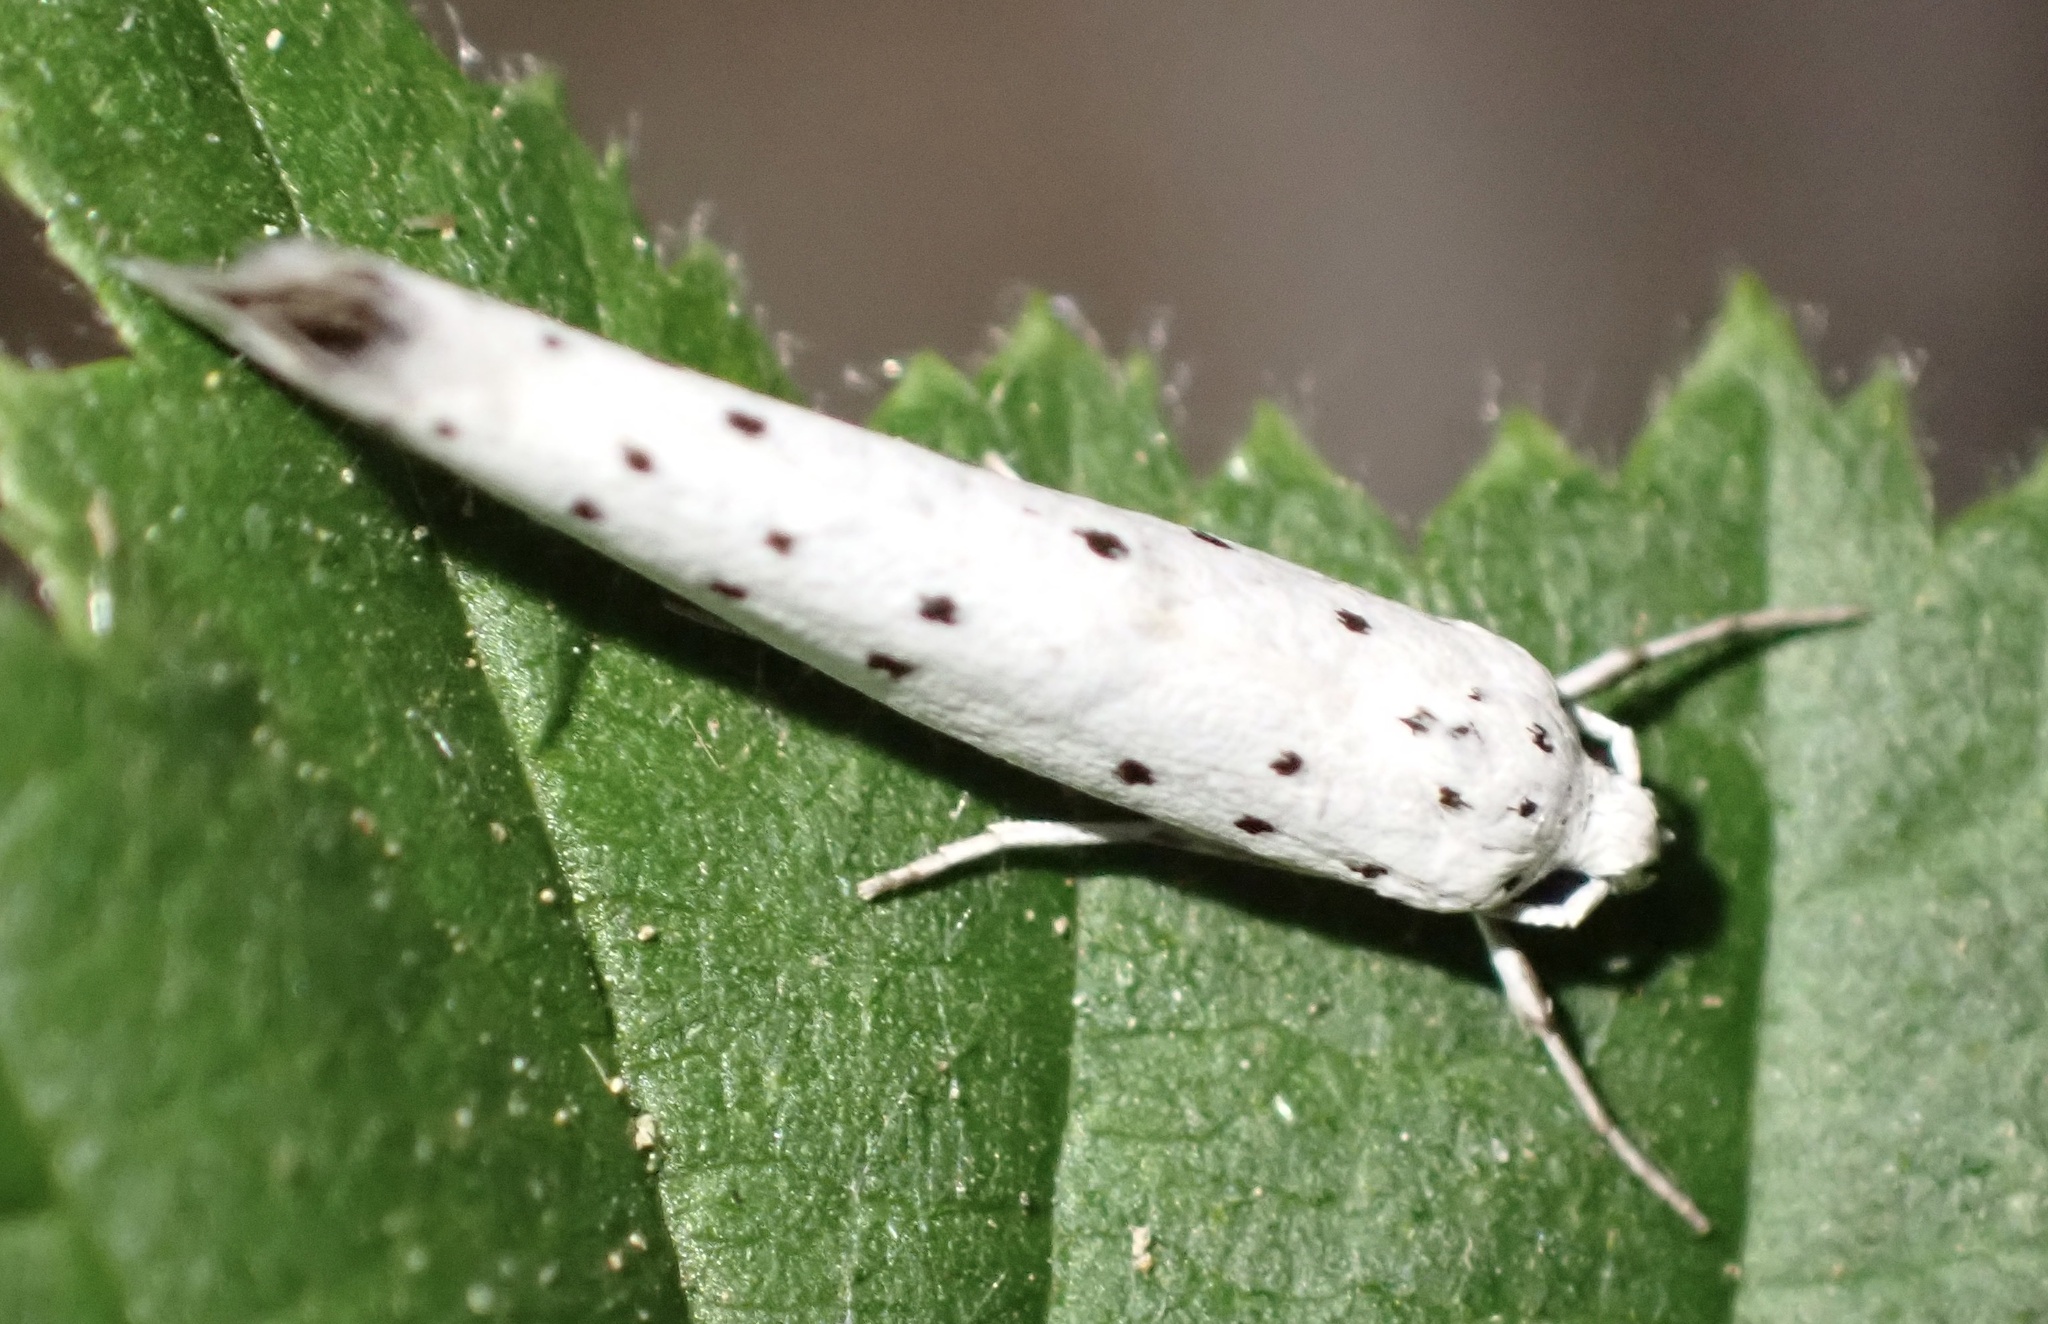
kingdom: Animalia
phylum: Arthropoda
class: Insecta
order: Lepidoptera
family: Yponomeutidae
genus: Yponomeuta
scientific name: Yponomeuta
